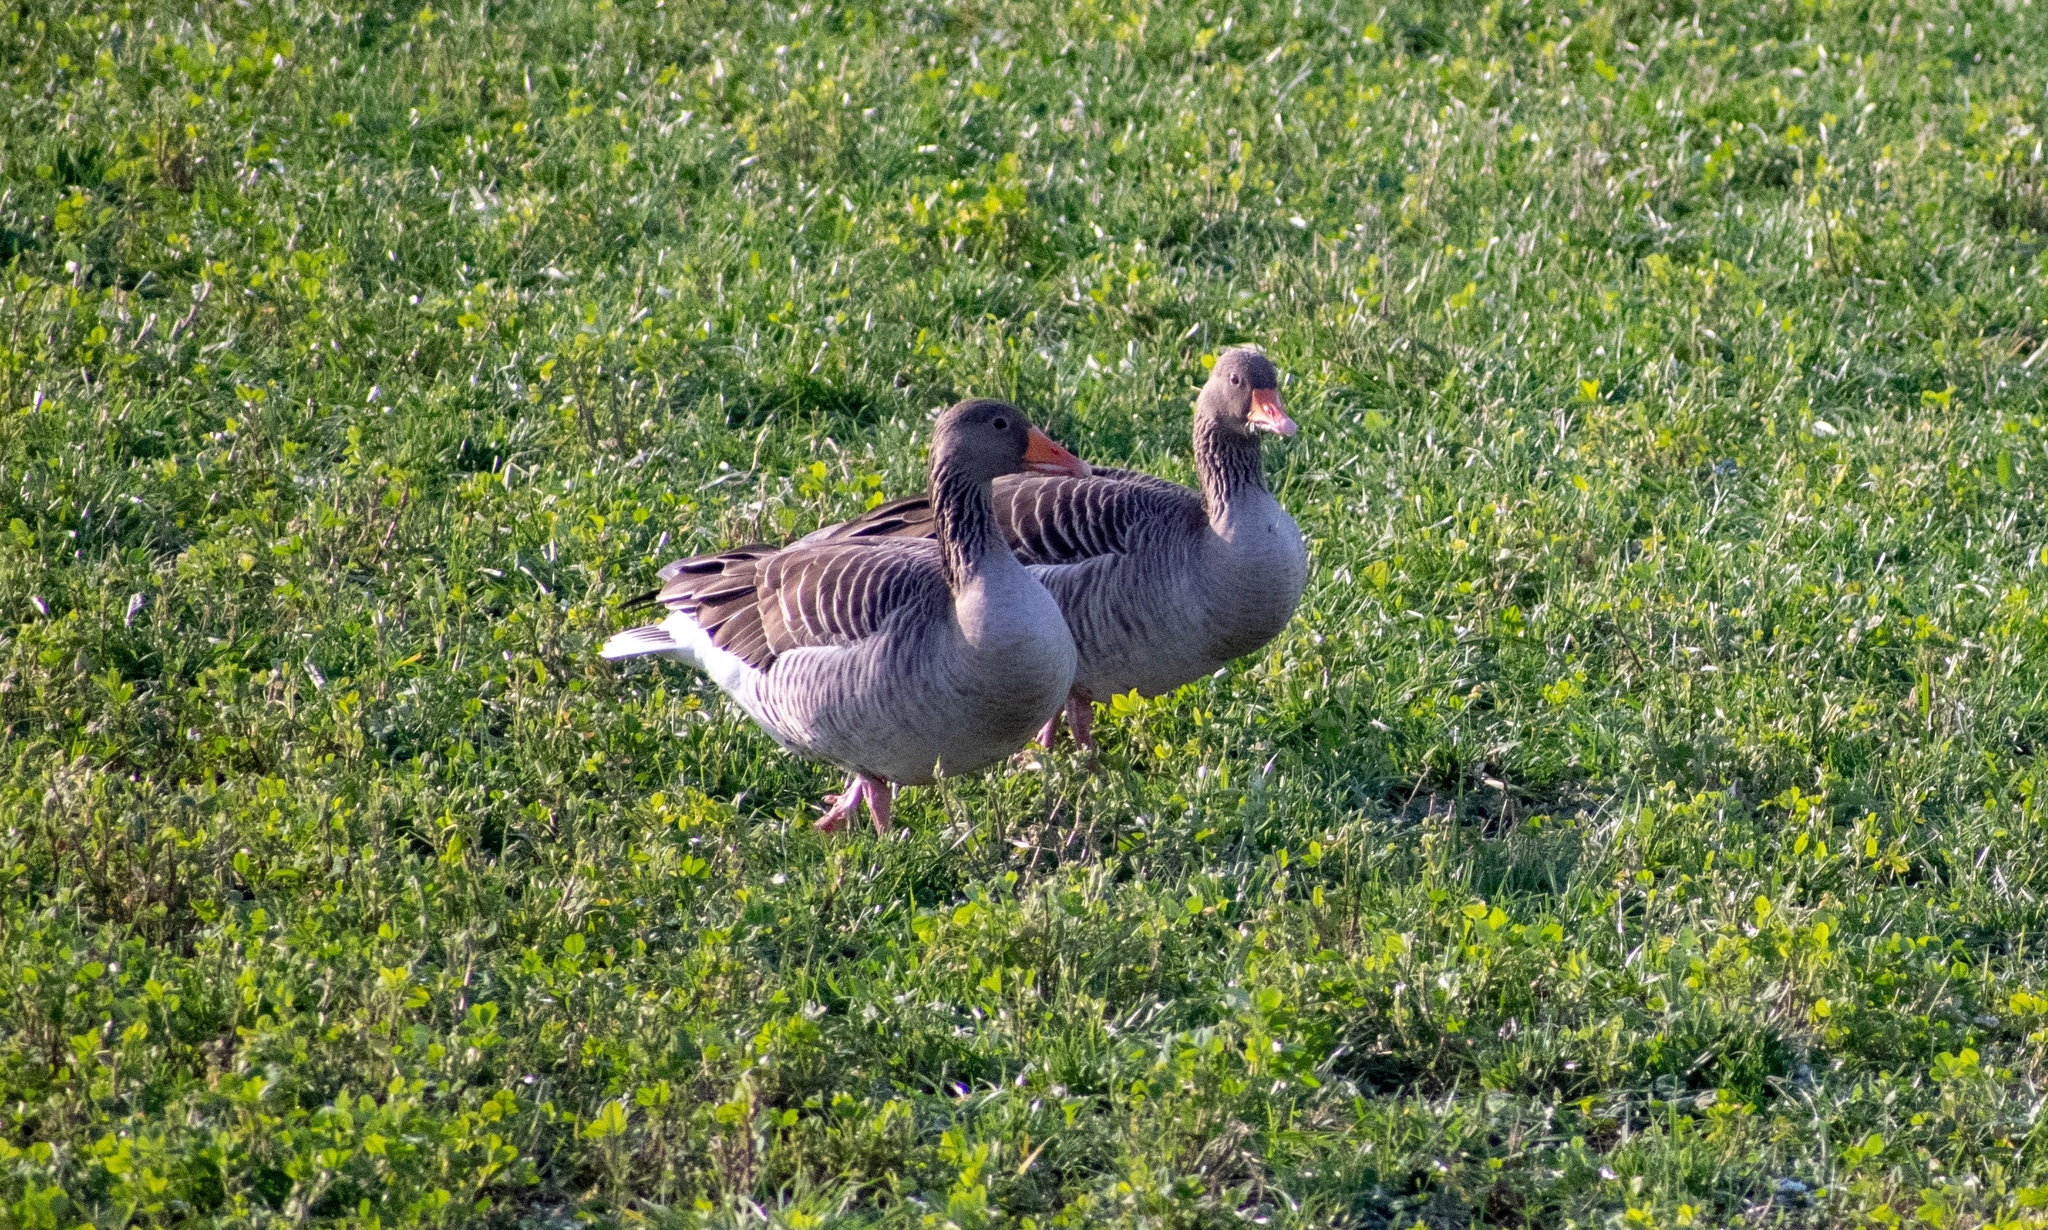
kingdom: Animalia
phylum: Chordata
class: Aves
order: Anseriformes
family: Anatidae
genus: Anser
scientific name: Anser anser
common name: Greylag goose
